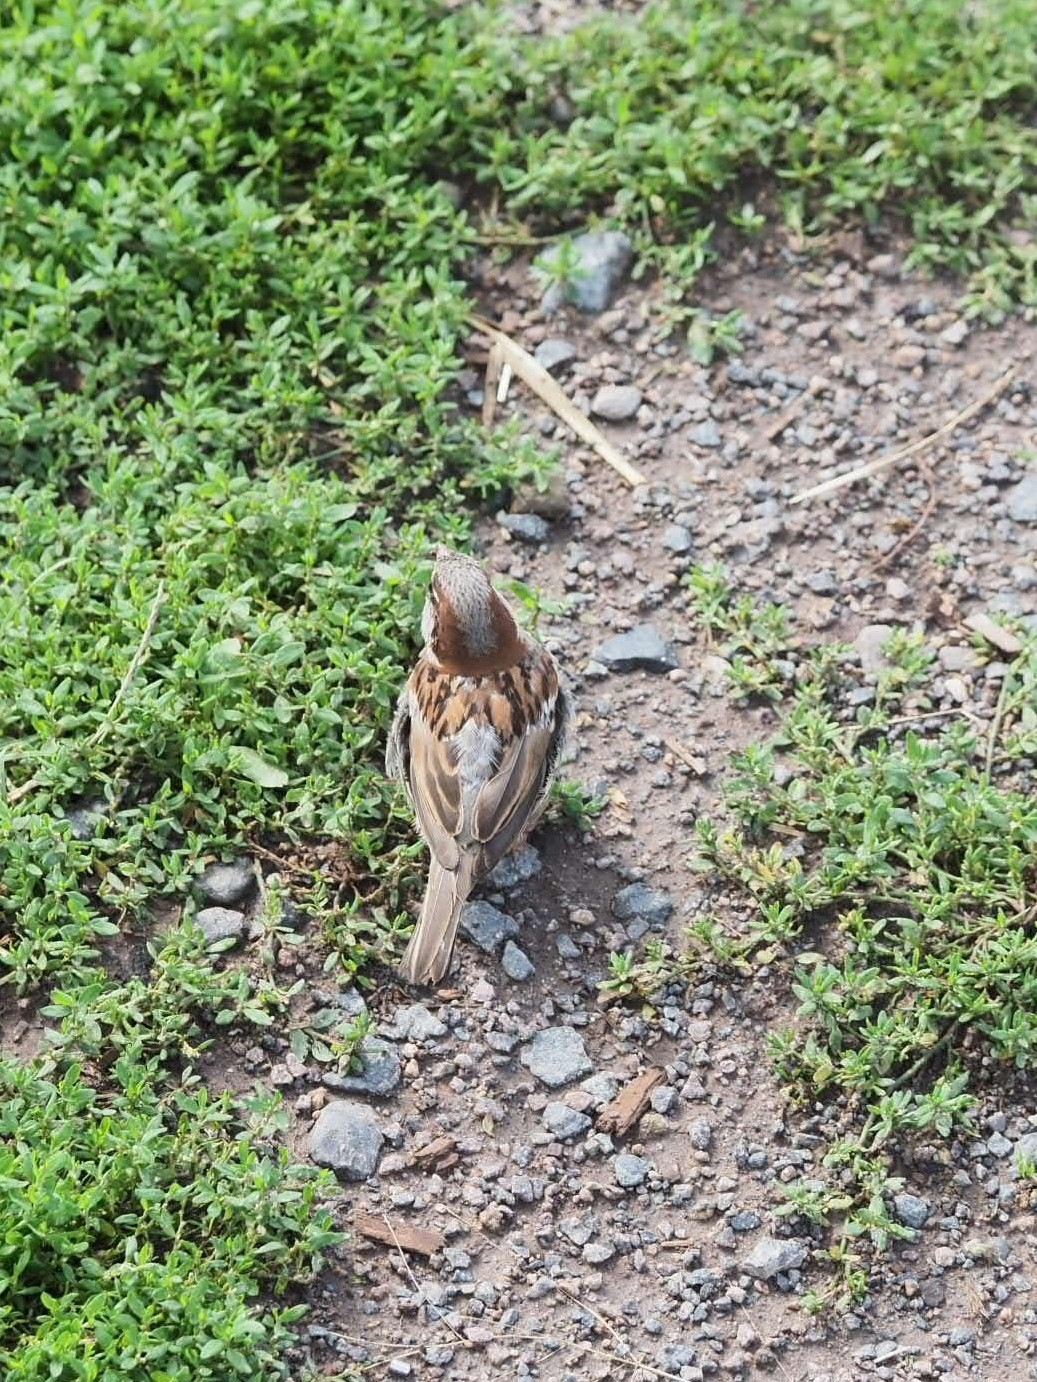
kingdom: Animalia
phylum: Chordata
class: Aves
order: Passeriformes
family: Passeridae
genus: Passer
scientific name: Passer domesticus
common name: House sparrow
